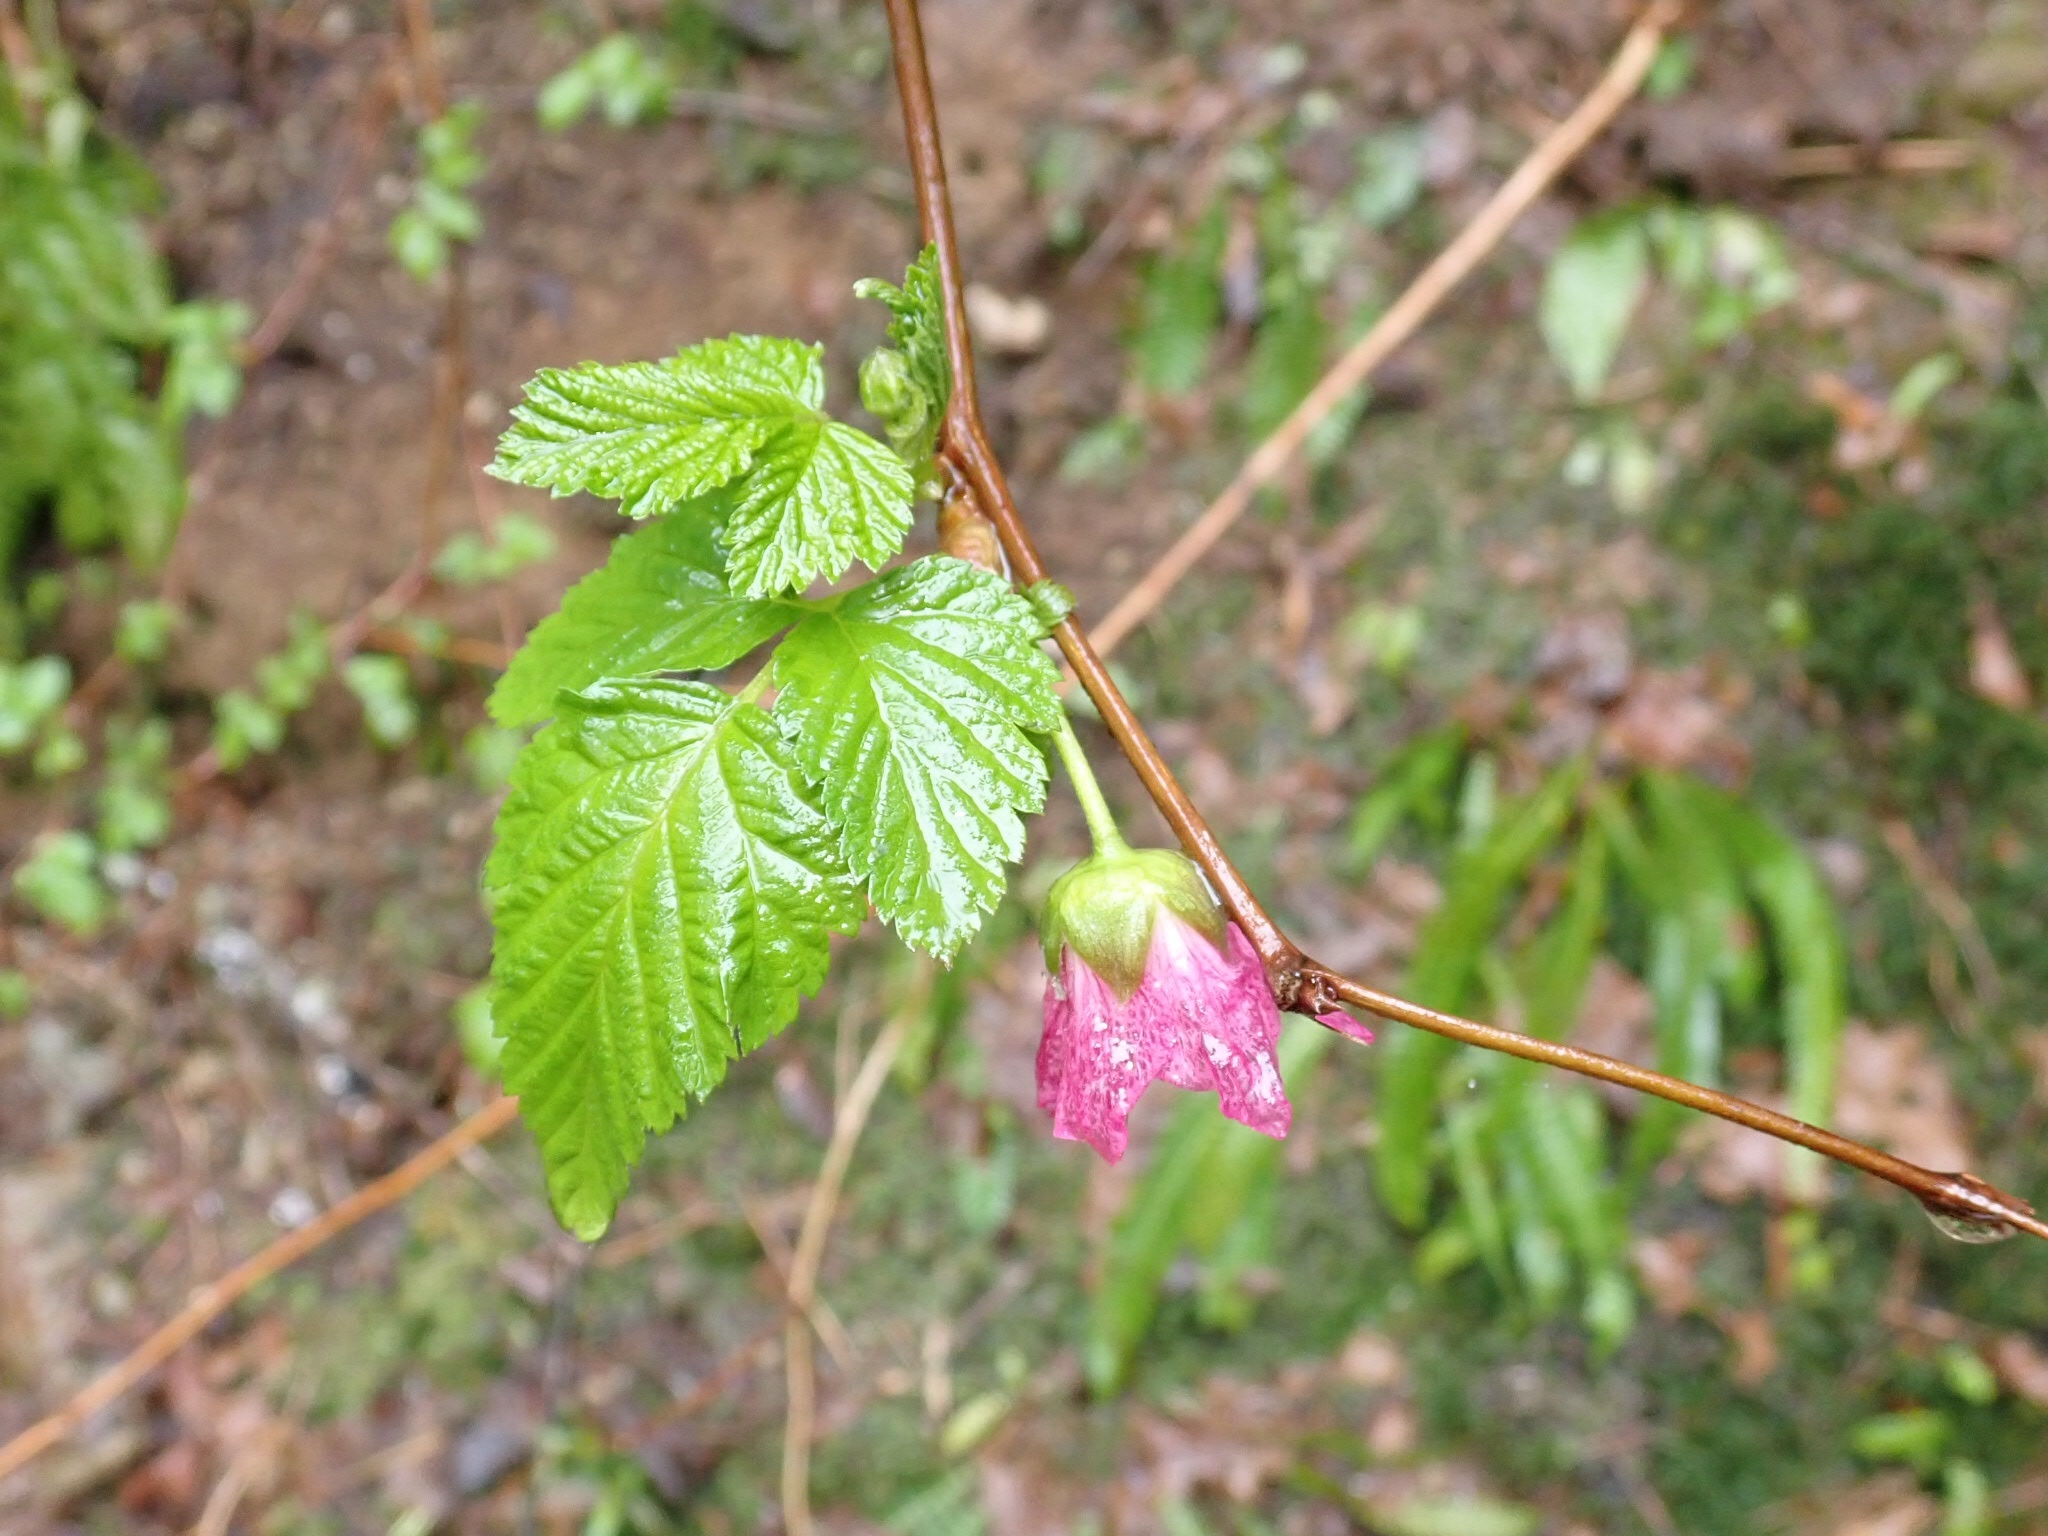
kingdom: Plantae
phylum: Tracheophyta
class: Magnoliopsida
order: Rosales
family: Rosaceae
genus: Rubus
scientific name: Rubus spectabilis
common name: Salmonberry
